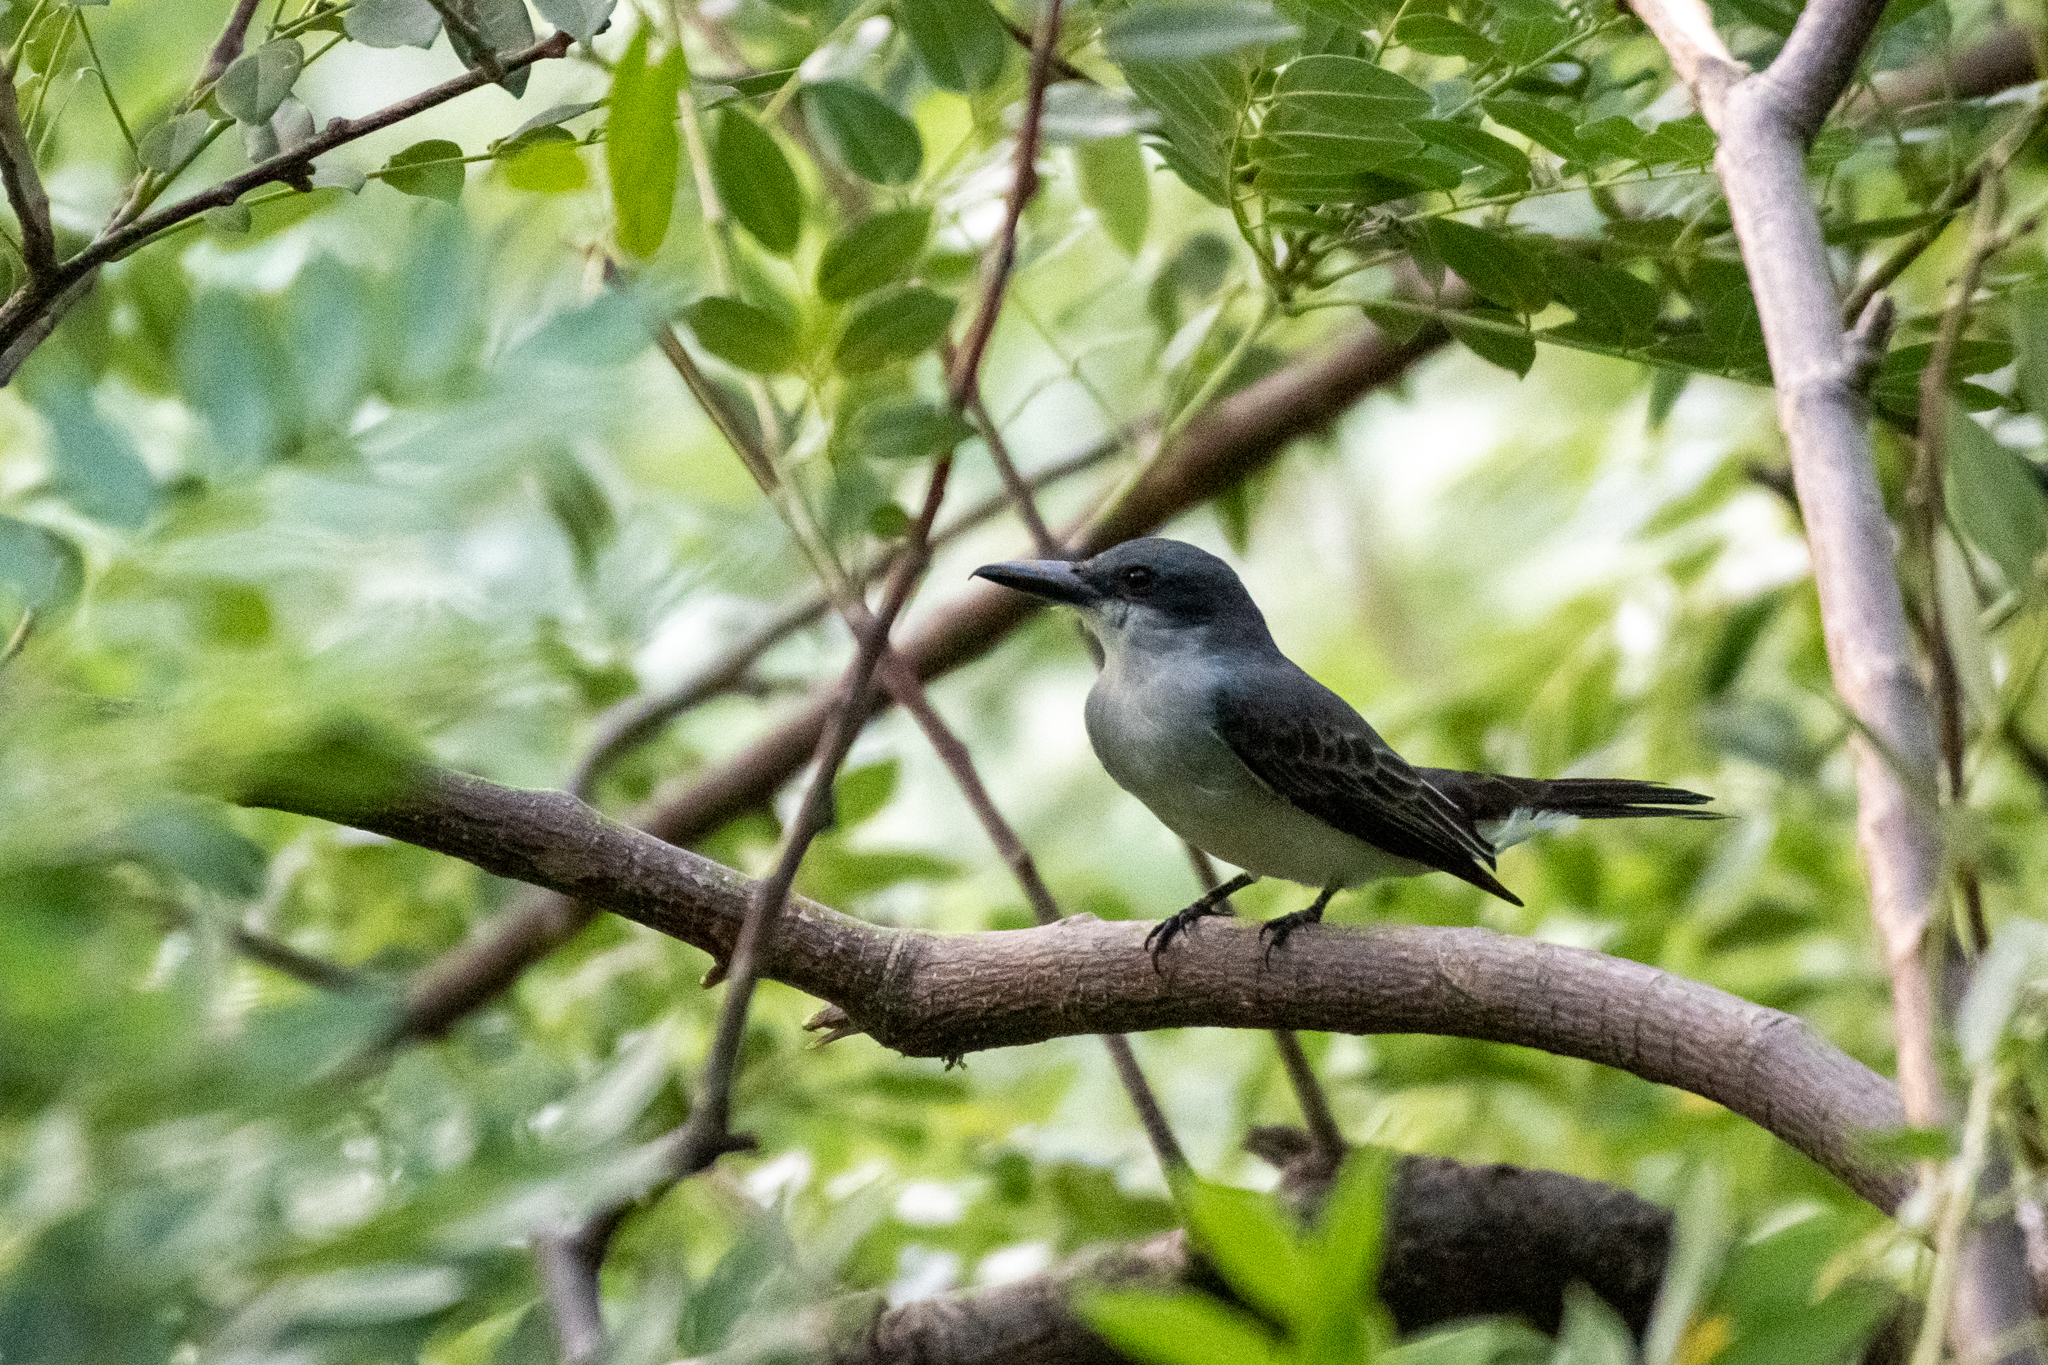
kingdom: Animalia
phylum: Chordata
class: Aves
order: Passeriformes
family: Tyrannidae
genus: Tyrannus
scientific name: Tyrannus dominicensis
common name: Gray kingbird
